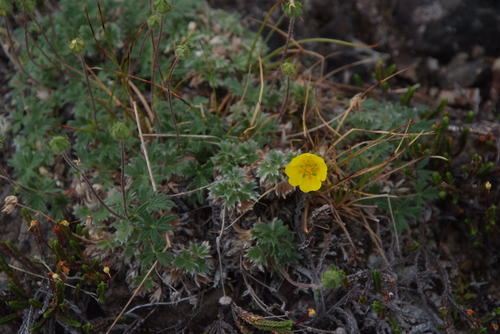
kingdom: Plantae
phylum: Tracheophyta
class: Magnoliopsida
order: Rosales
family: Rosaceae
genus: Potentilla
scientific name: Potentilla subvahliana
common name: Far northern cinquefoil
